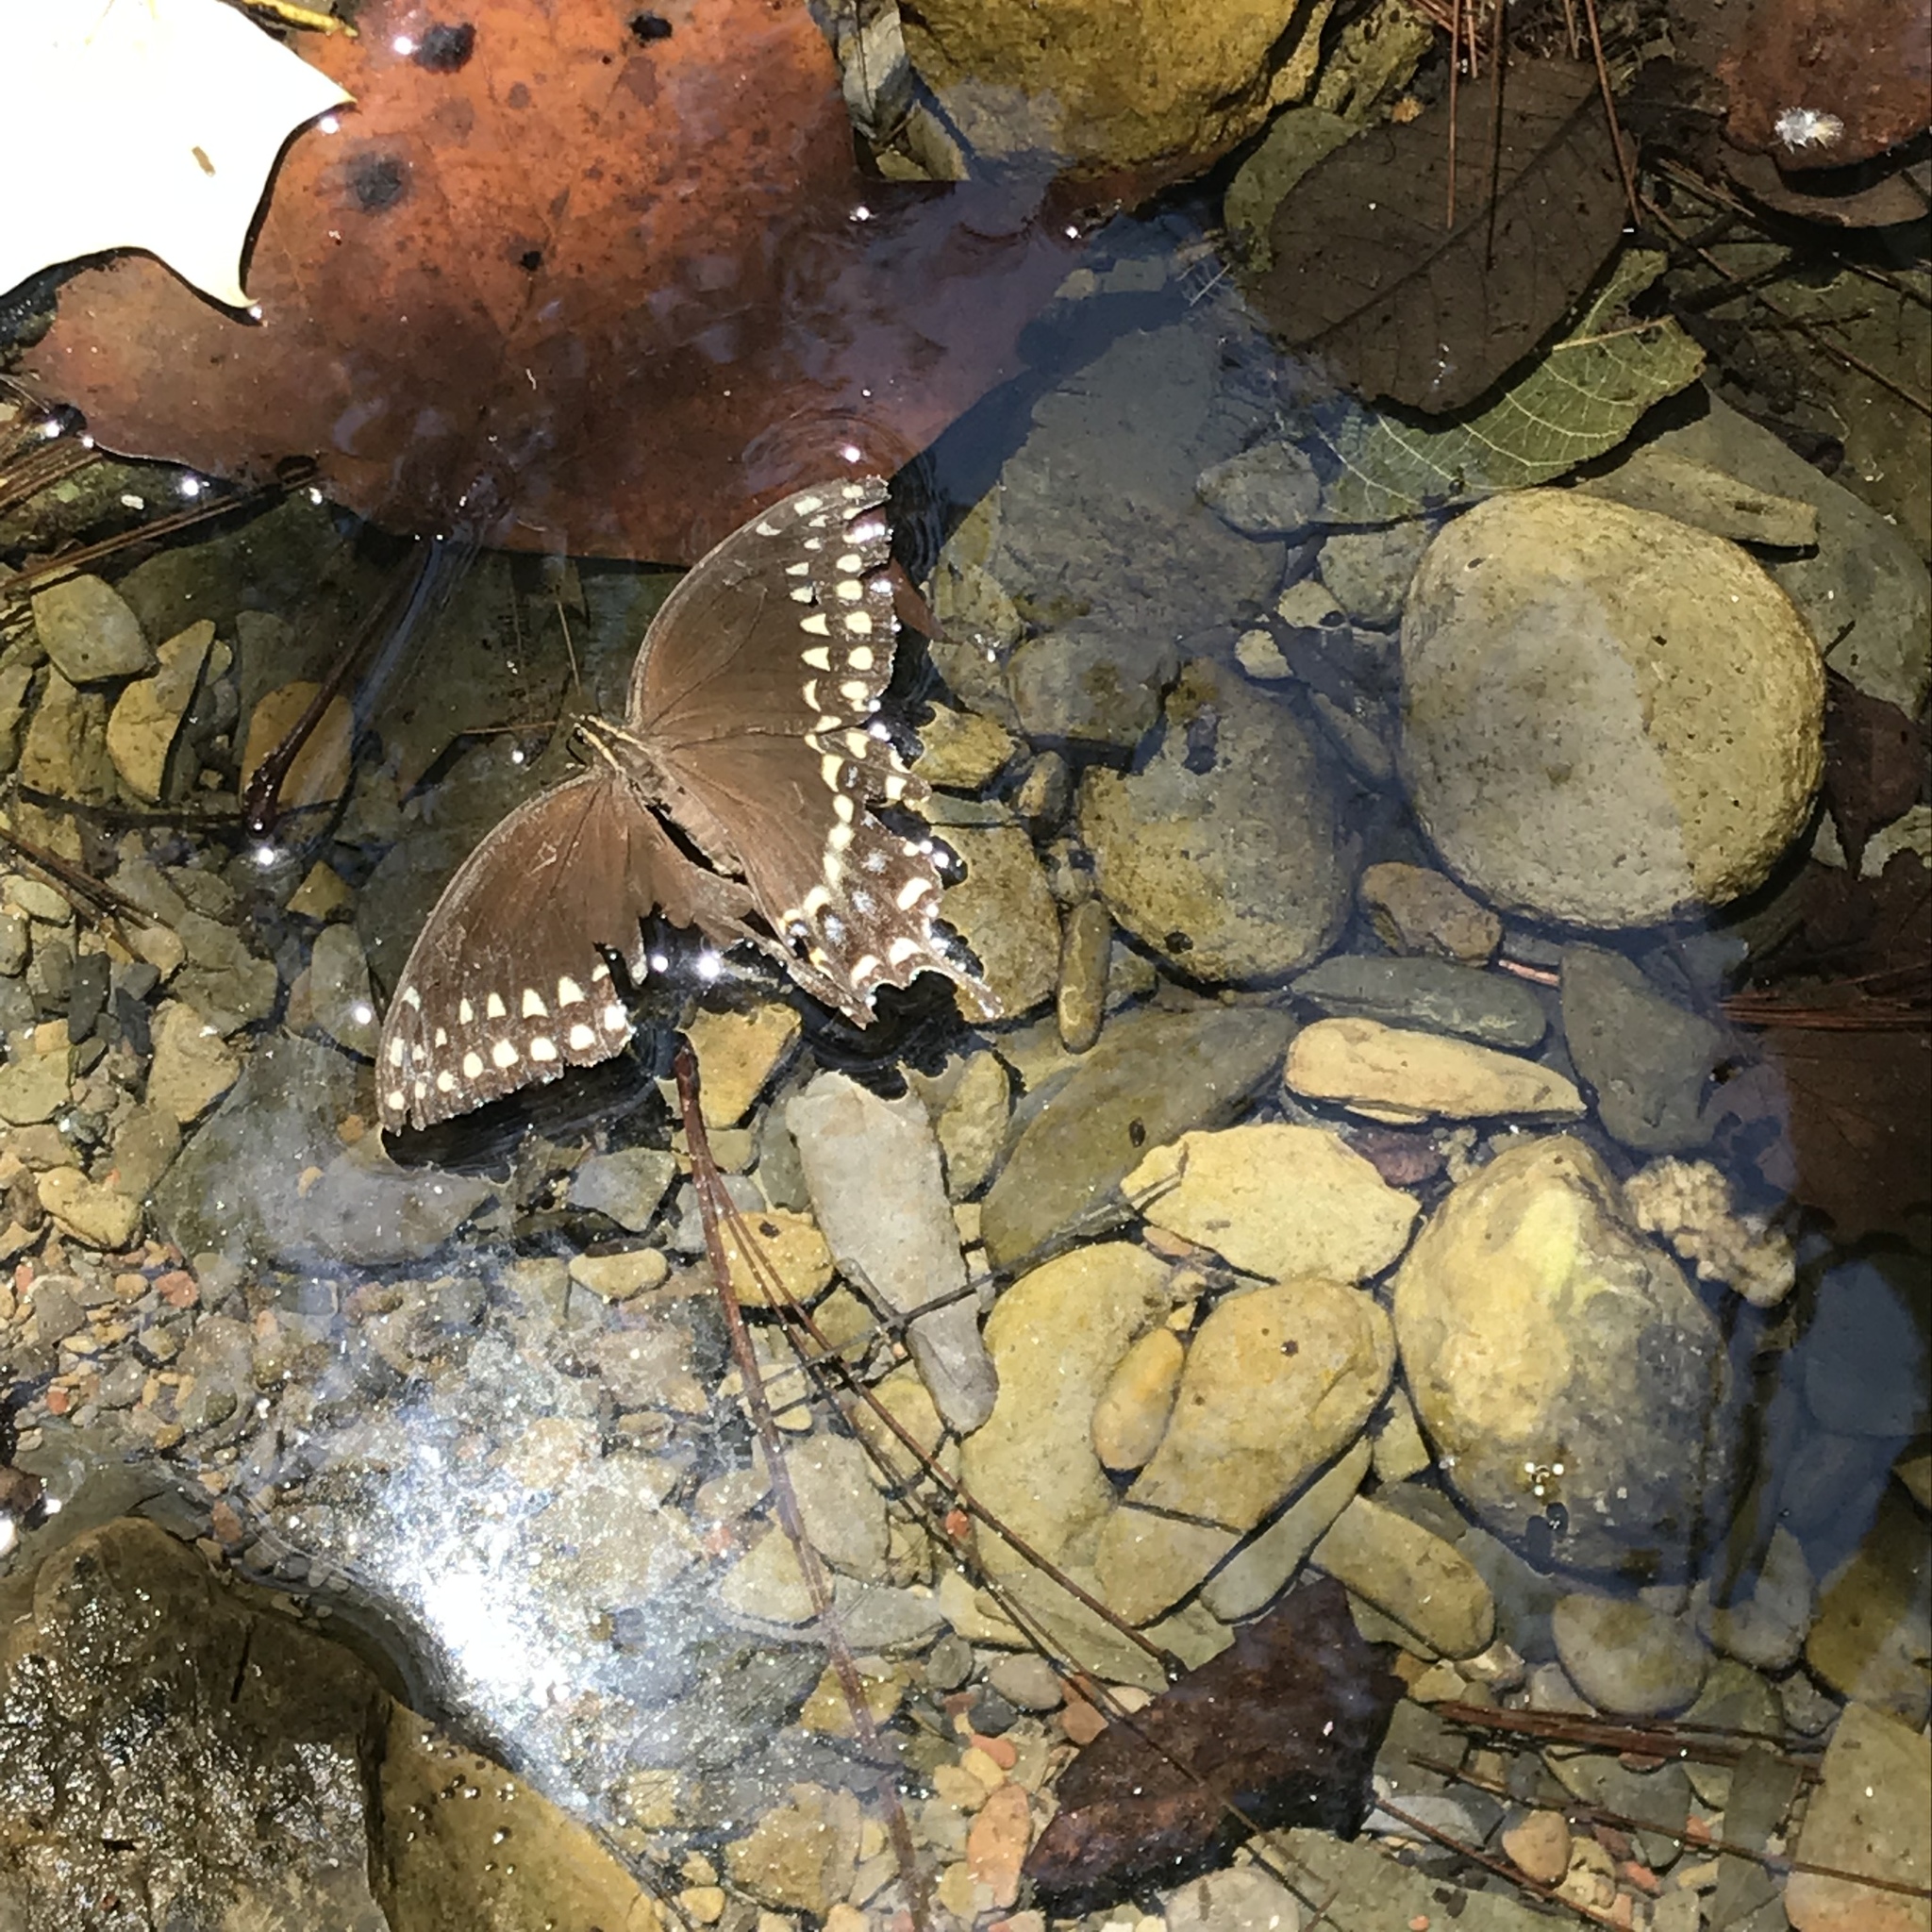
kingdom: Animalia
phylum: Arthropoda
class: Insecta
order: Lepidoptera
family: Papilionidae
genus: Papilio
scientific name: Papilio palamedes
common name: Palamedes swallowtail
